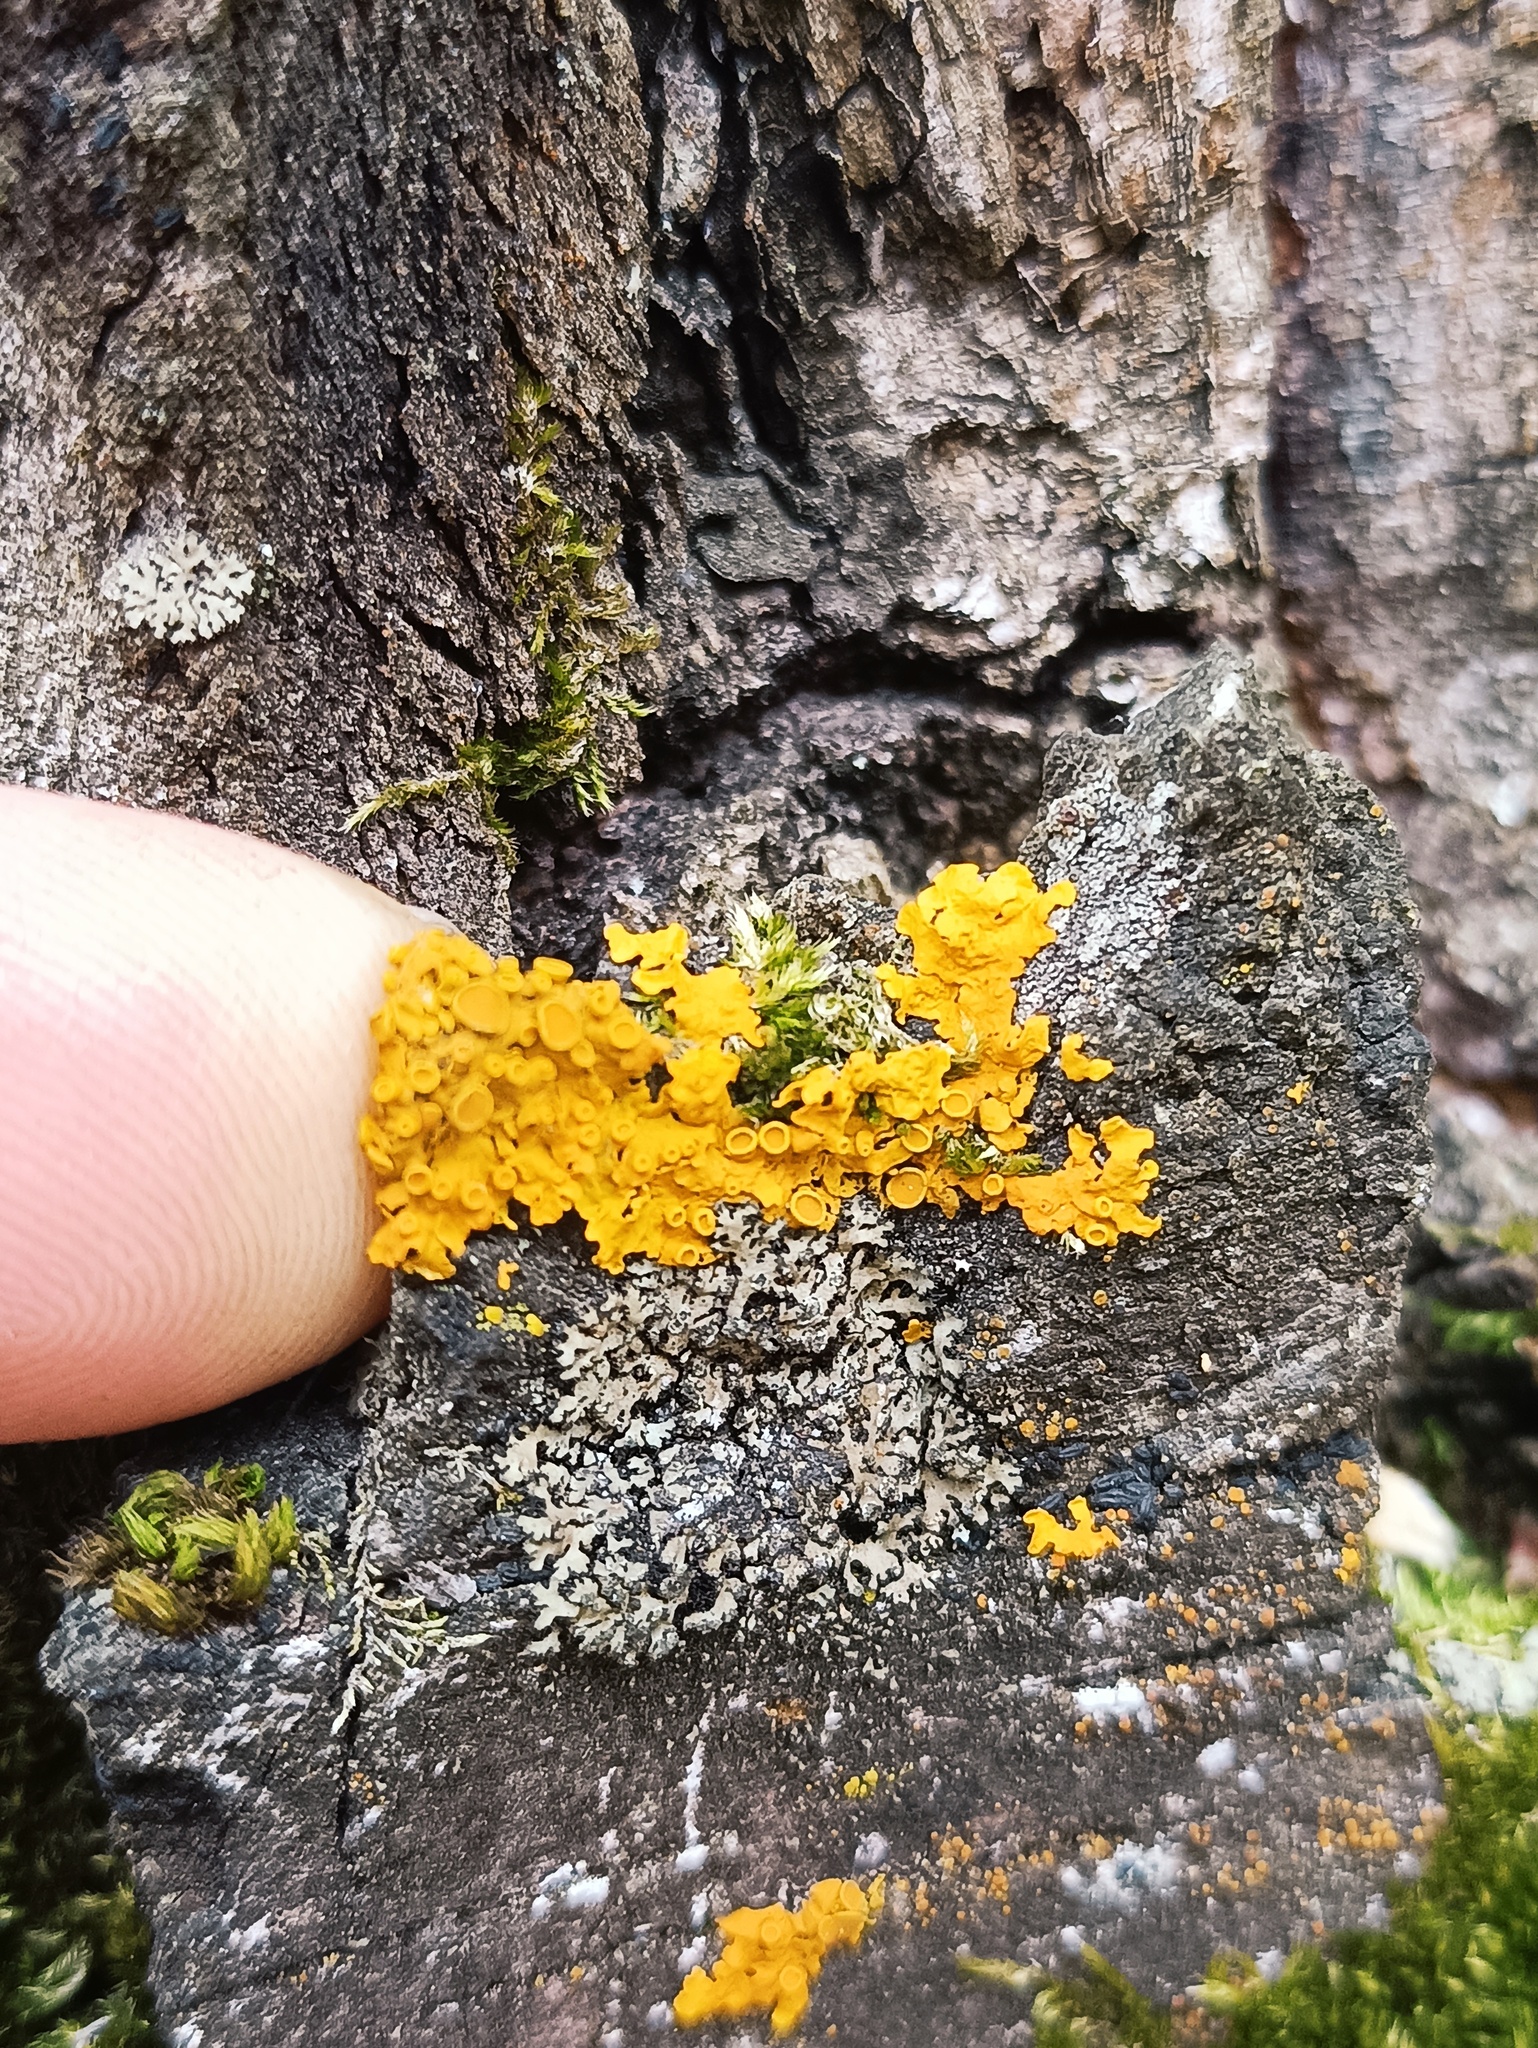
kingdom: Fungi
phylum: Ascomycota
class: Lecanoromycetes
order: Teloschistales
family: Teloschistaceae
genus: Xanthoria
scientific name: Xanthoria parietina
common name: Common orange lichen
